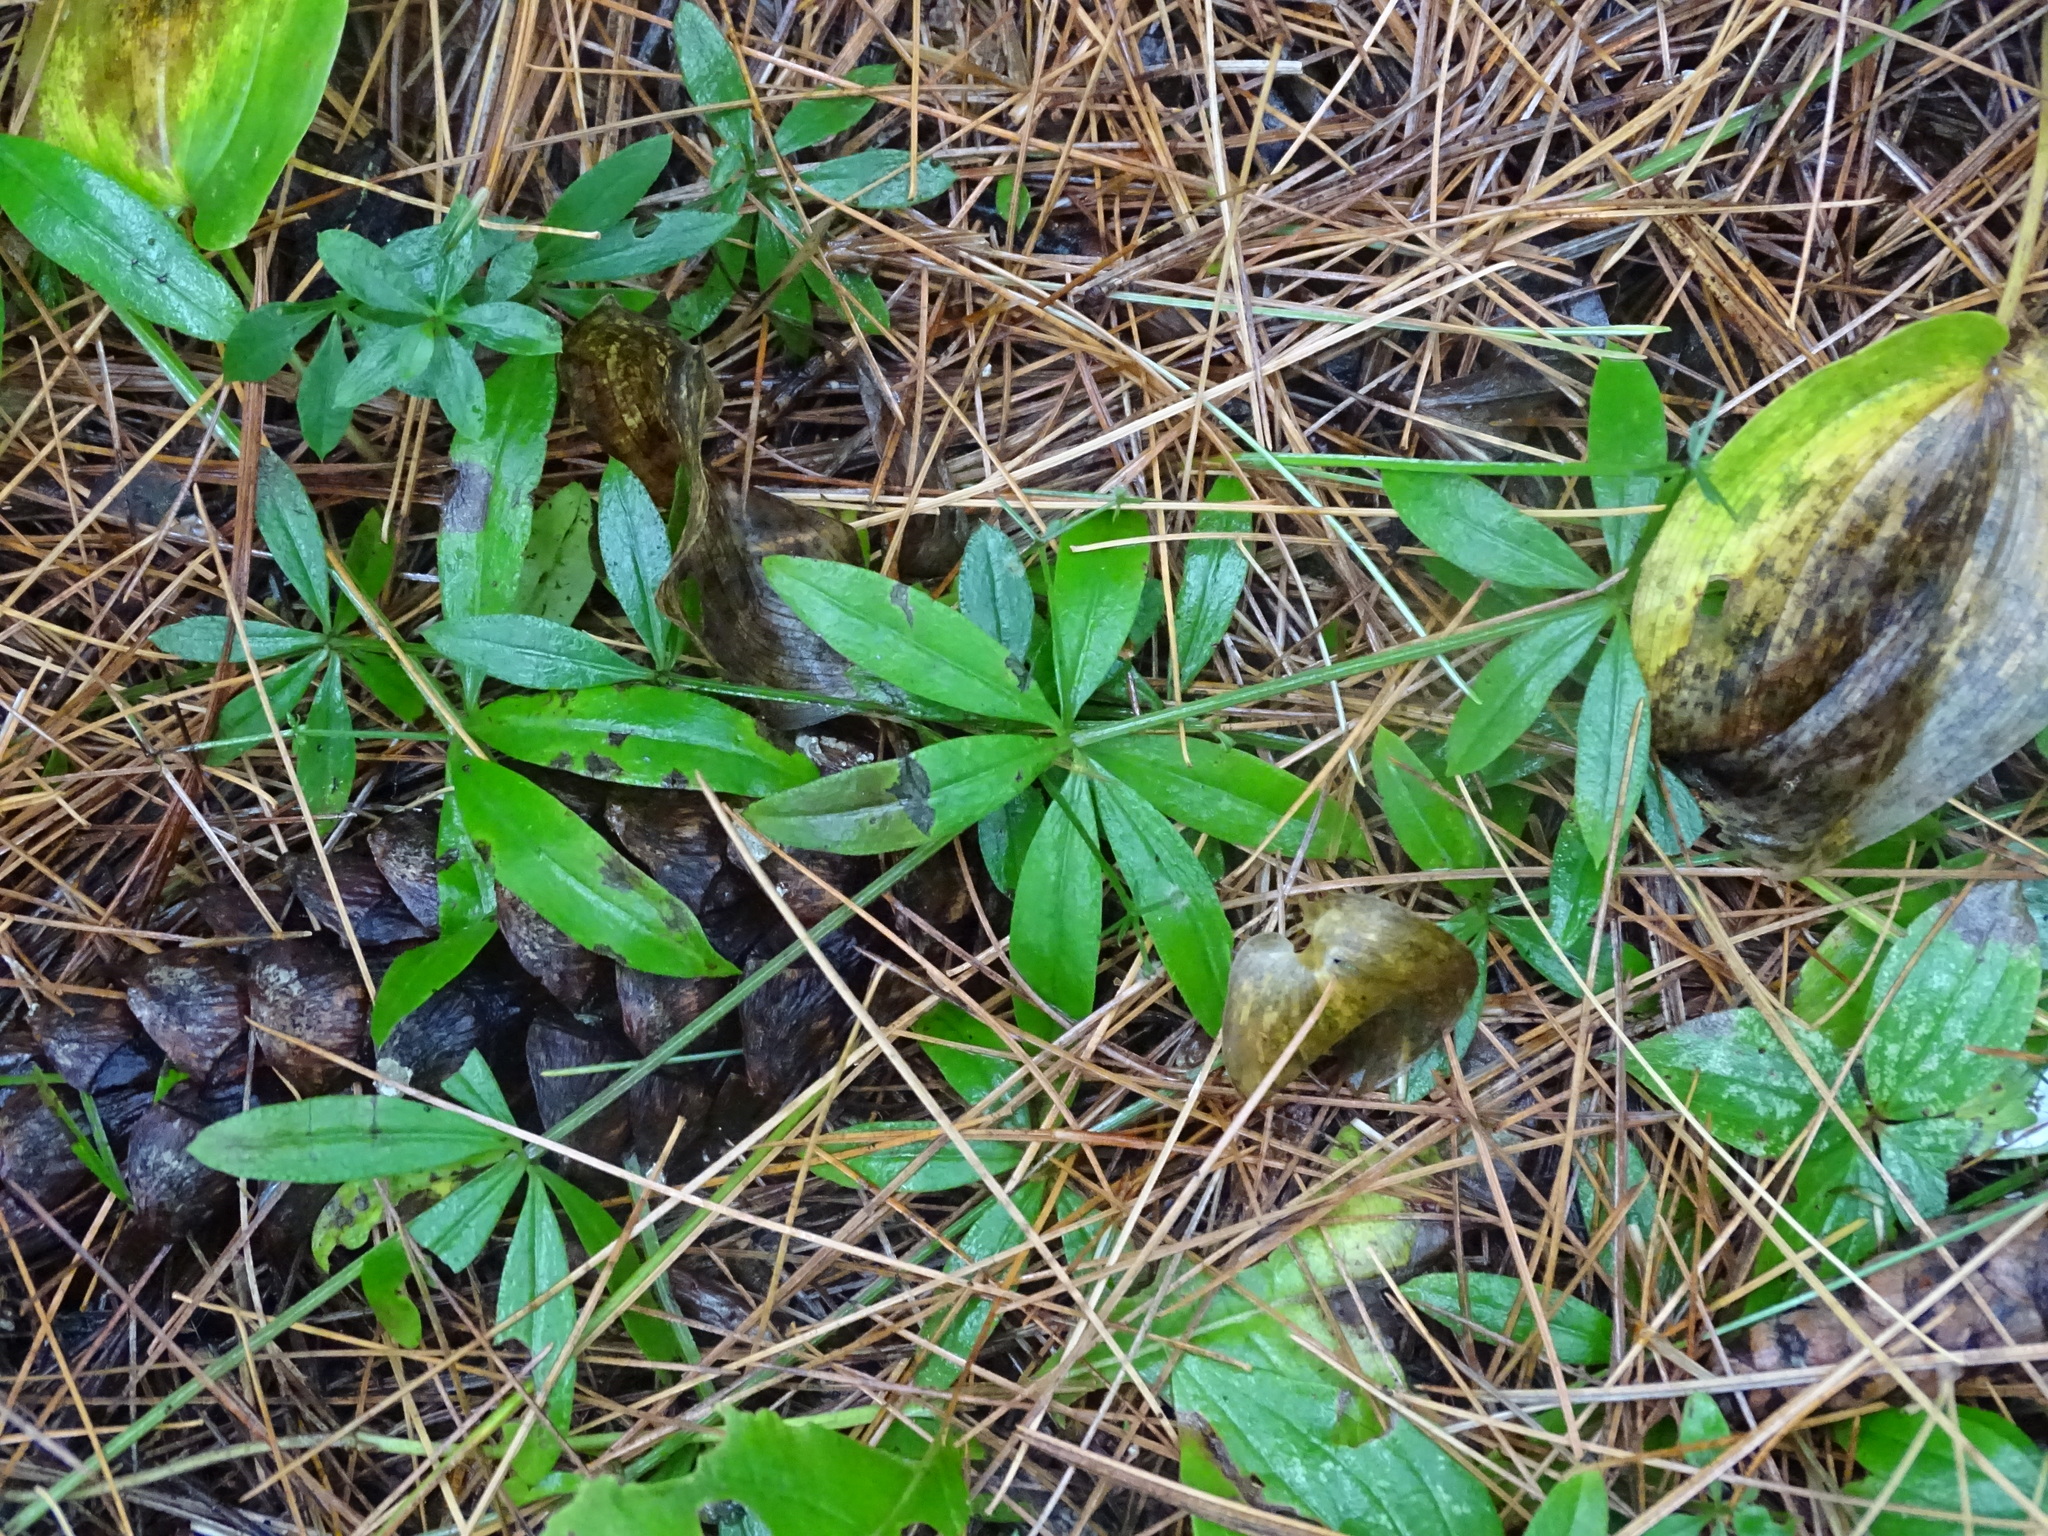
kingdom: Plantae
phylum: Tracheophyta
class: Magnoliopsida
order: Gentianales
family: Rubiaceae
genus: Galium
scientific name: Galium triflorum
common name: Fragrant bedstraw
